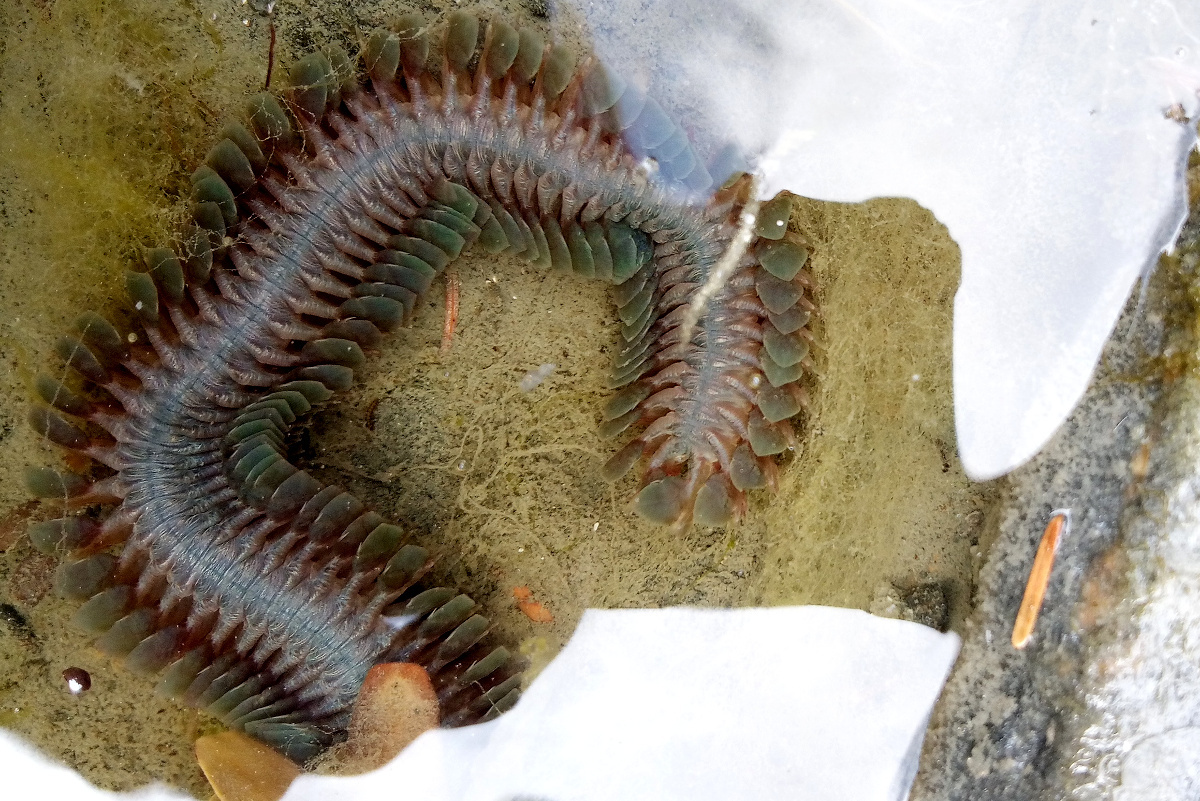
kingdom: Animalia
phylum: Annelida
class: Polychaeta
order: Phyllodocida
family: Nereididae
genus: Alitta
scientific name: Alitta williami
